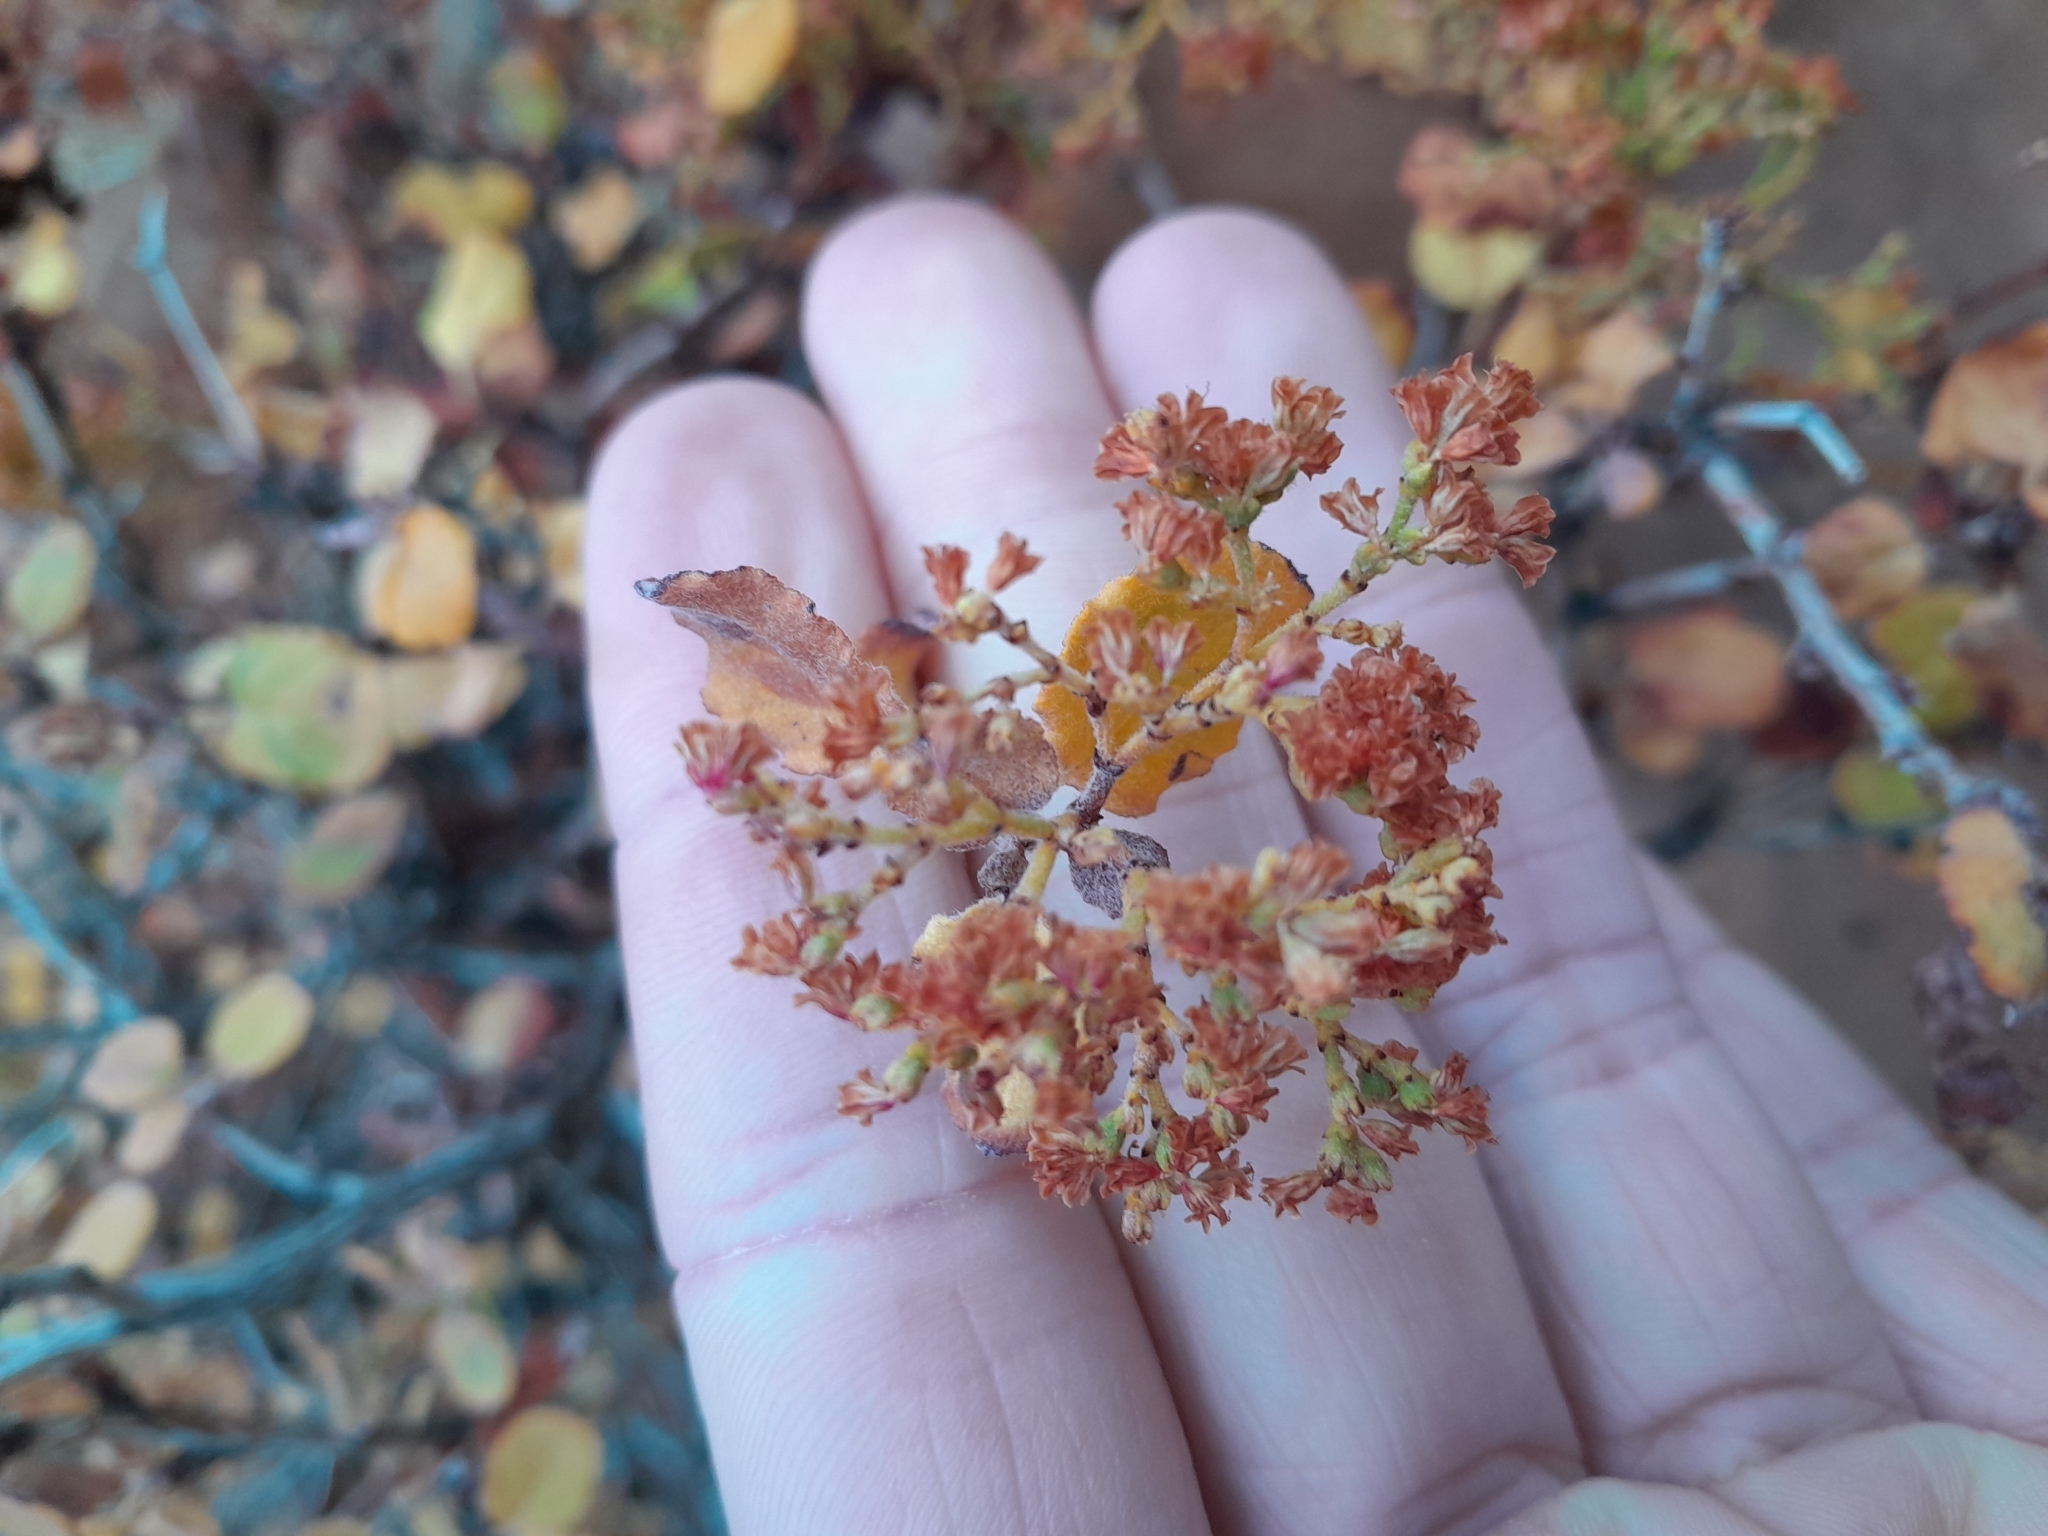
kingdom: Plantae
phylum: Tracheophyta
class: Magnoliopsida
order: Caryophyllales
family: Polygonaceae
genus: Eriogonum
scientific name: Eriogonum corymbosum
